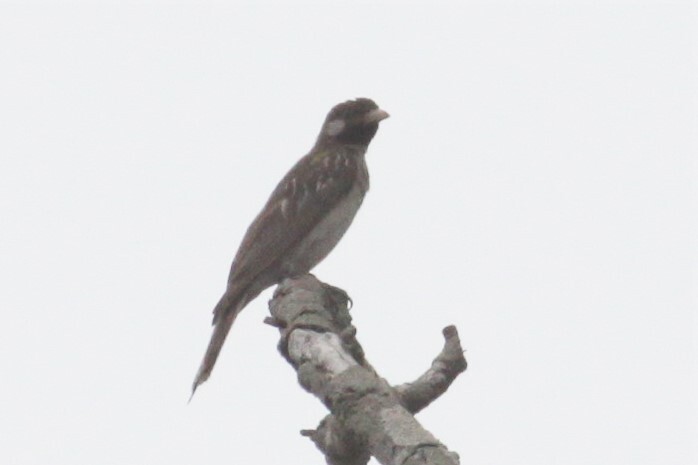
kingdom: Animalia
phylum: Chordata
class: Aves
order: Piciformes
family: Indicatoridae
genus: Indicator
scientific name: Indicator indicator
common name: Greater honeyguide
